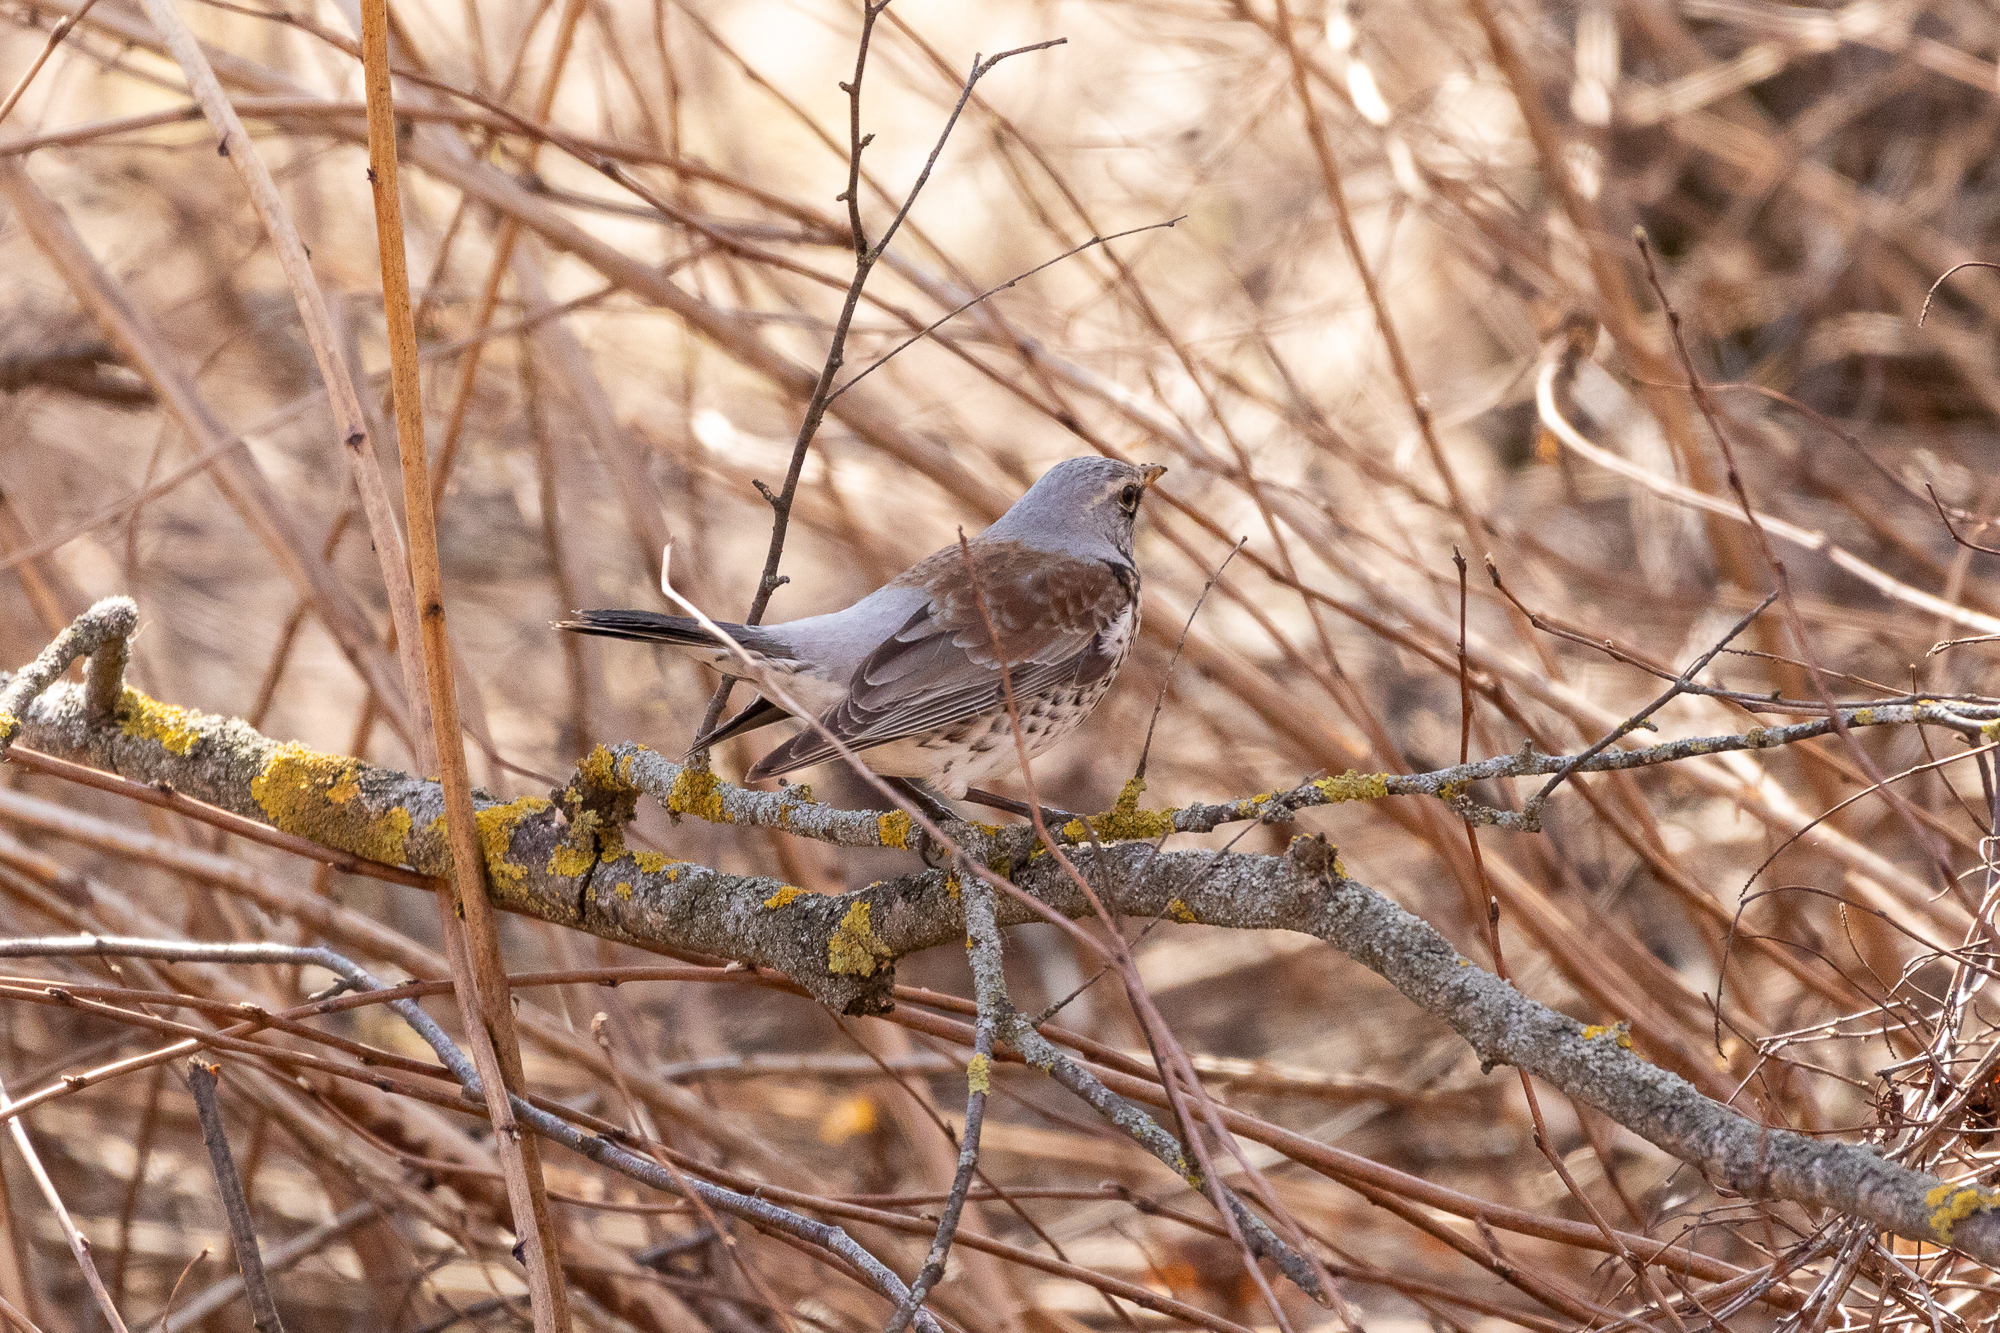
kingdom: Animalia
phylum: Chordata
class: Aves
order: Passeriformes
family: Turdidae
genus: Turdus
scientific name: Turdus pilaris
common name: Fieldfare
